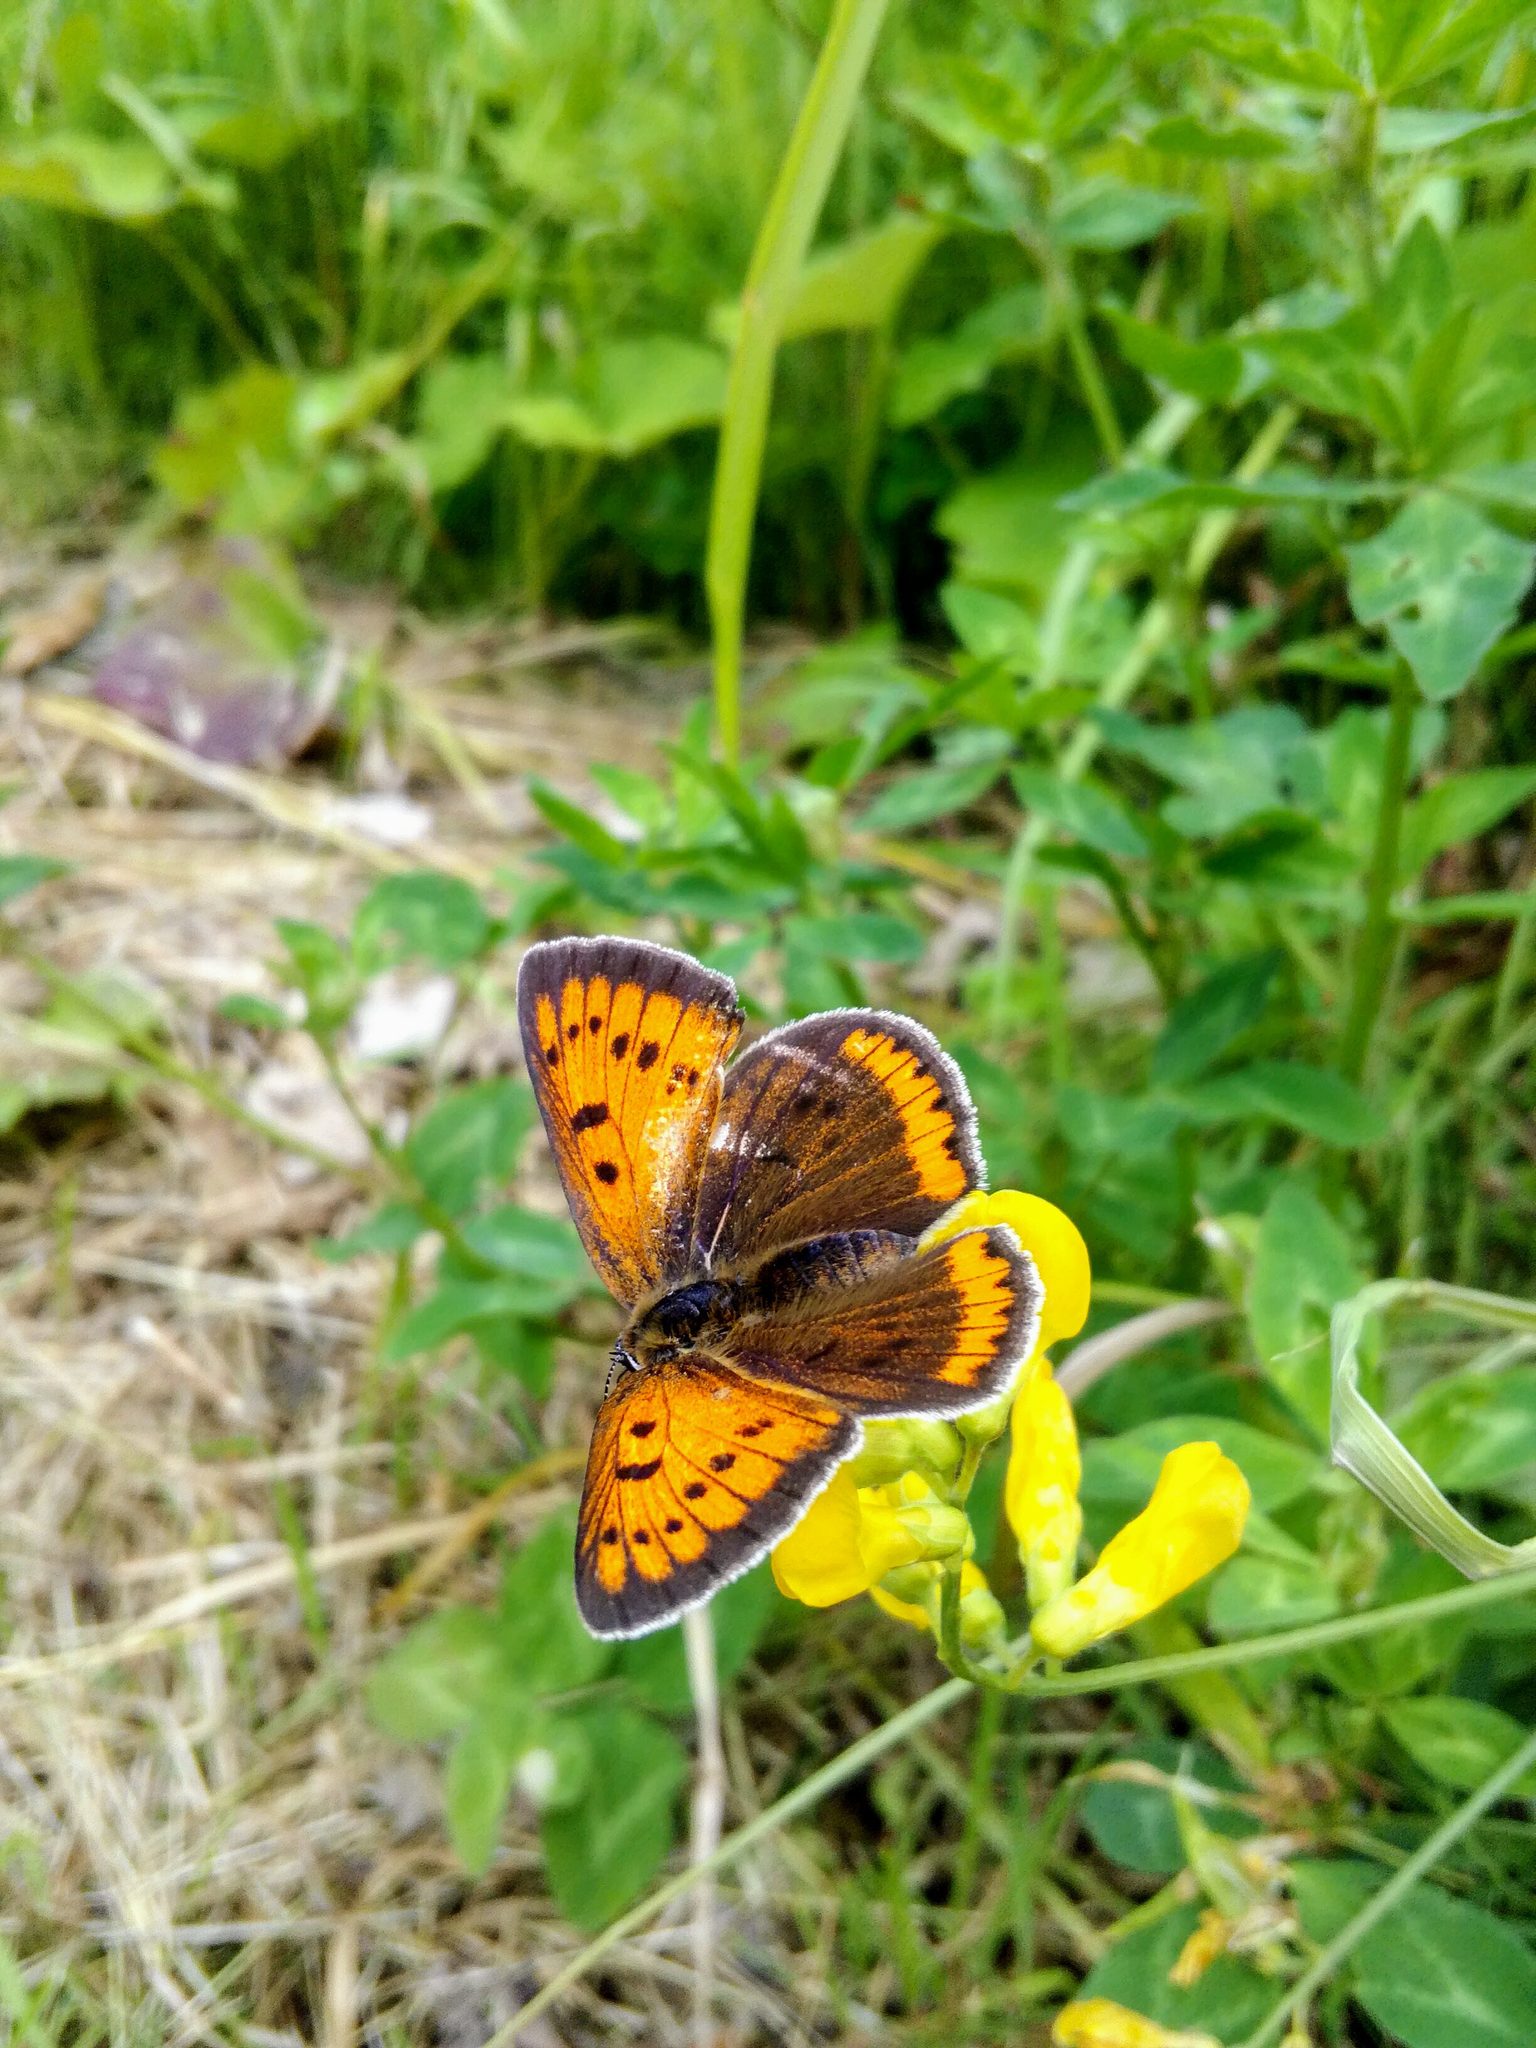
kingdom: Animalia
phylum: Arthropoda
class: Insecta
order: Lepidoptera
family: Lycaenidae
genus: Lycaena
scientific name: Lycaena dispar
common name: Large copper
